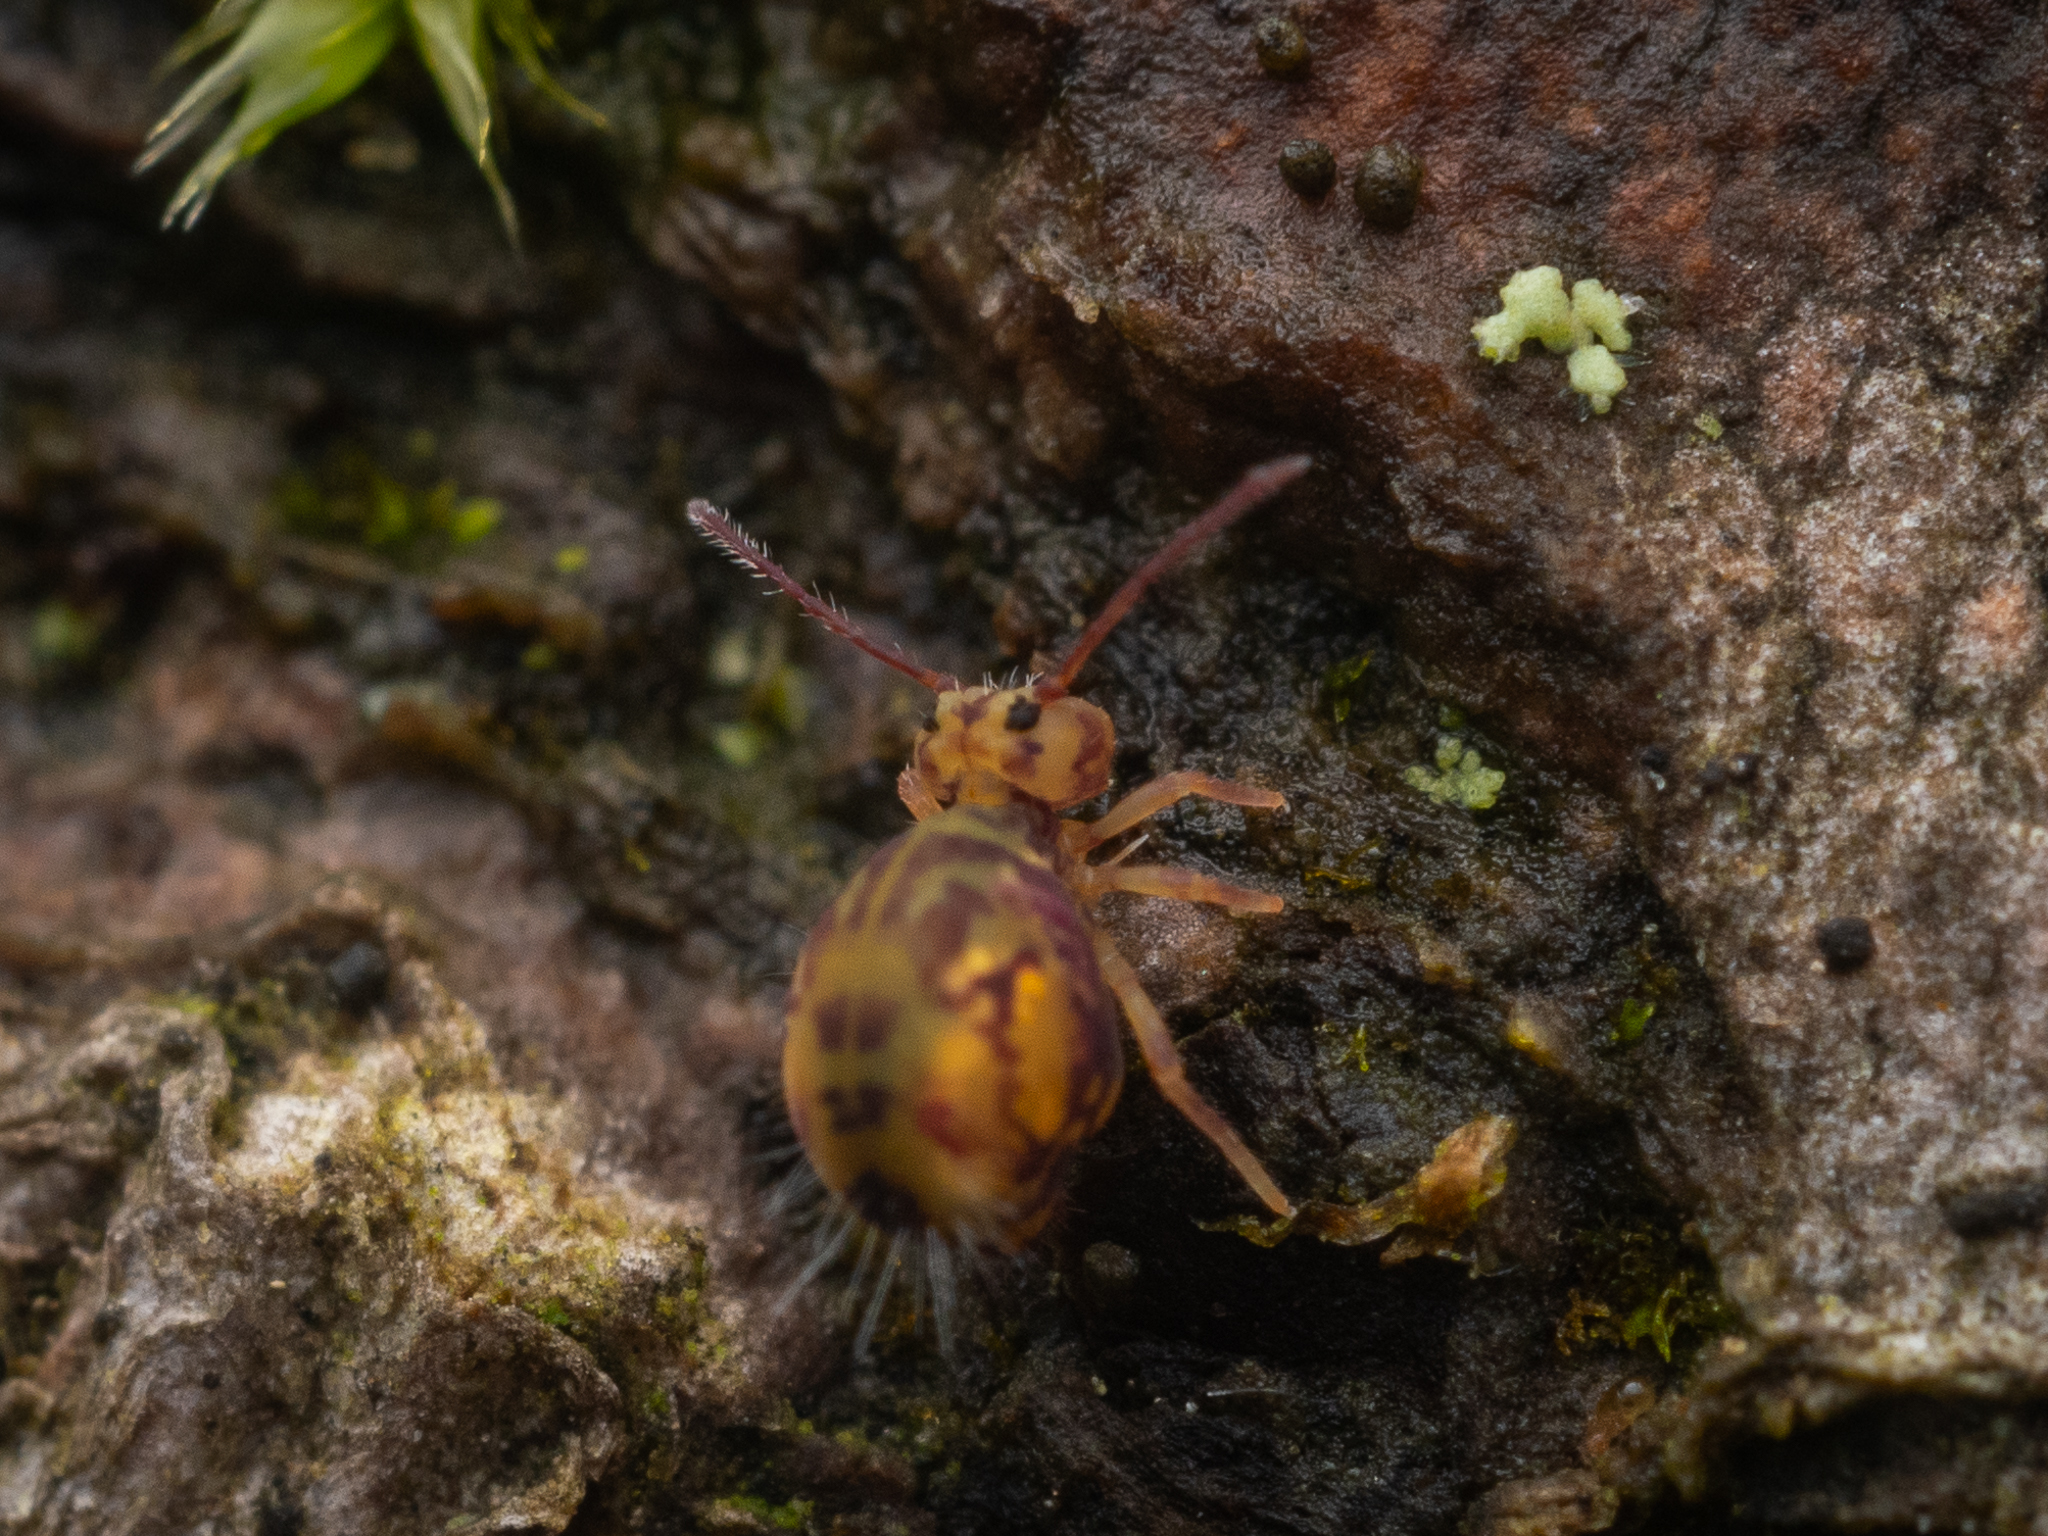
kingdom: Animalia
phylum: Arthropoda
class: Collembola
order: Symphypleona
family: Dicyrtomidae
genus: Dicyrtomina
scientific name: Dicyrtomina ornata
